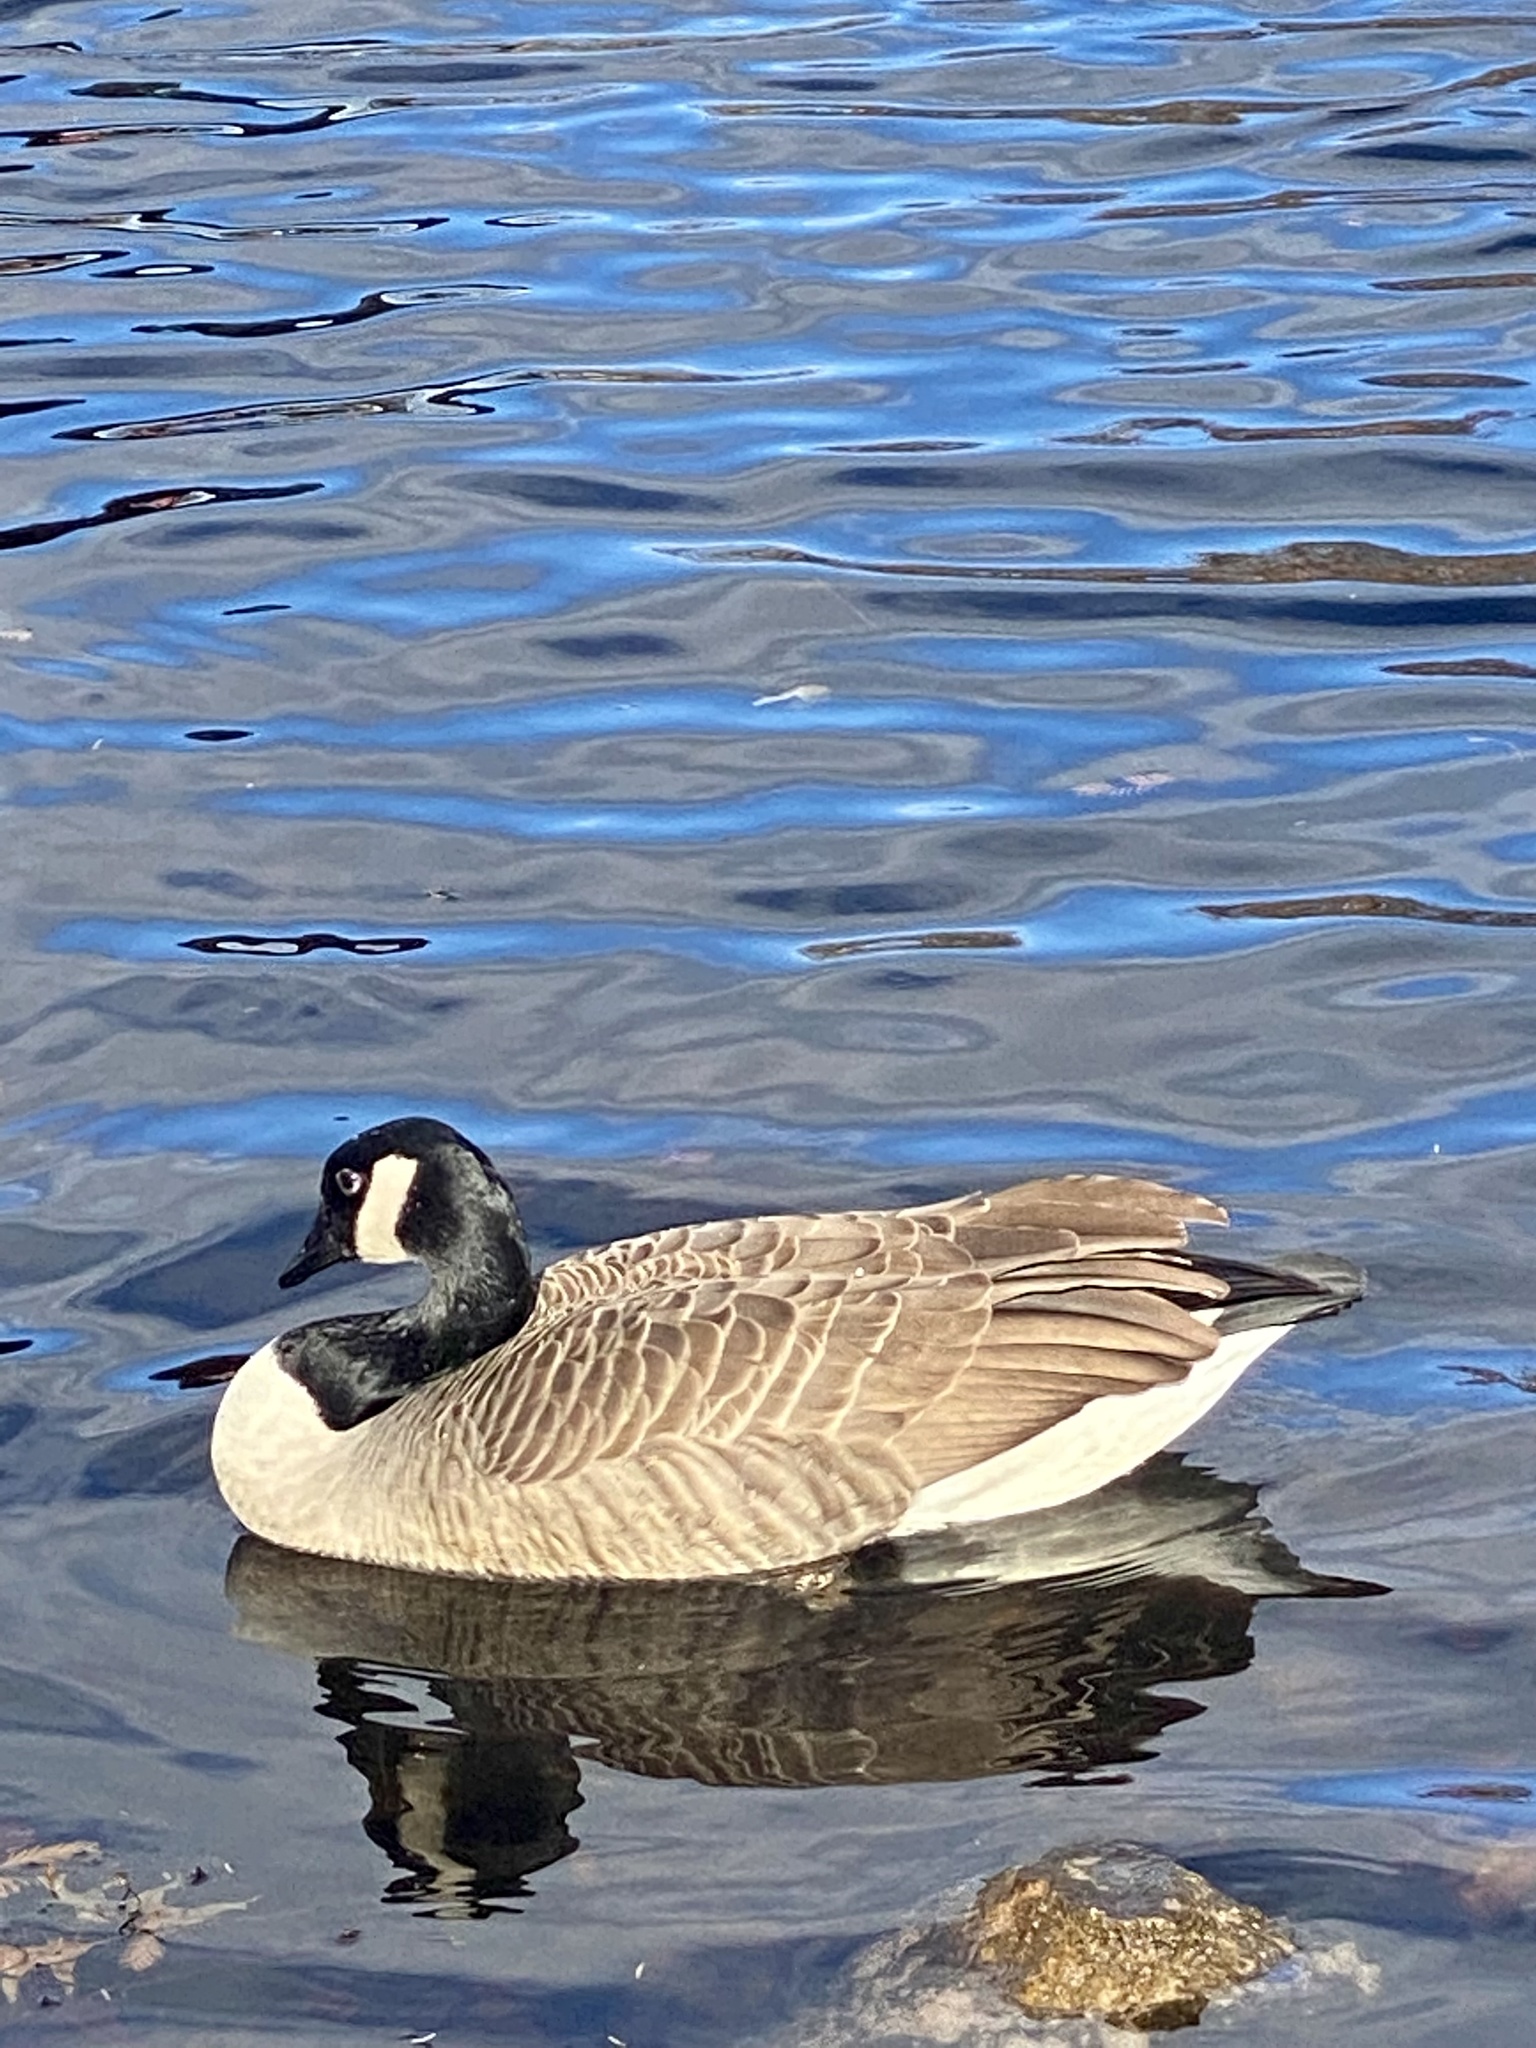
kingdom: Animalia
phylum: Chordata
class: Aves
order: Anseriformes
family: Anatidae
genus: Branta
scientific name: Branta canadensis
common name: Canada goose
